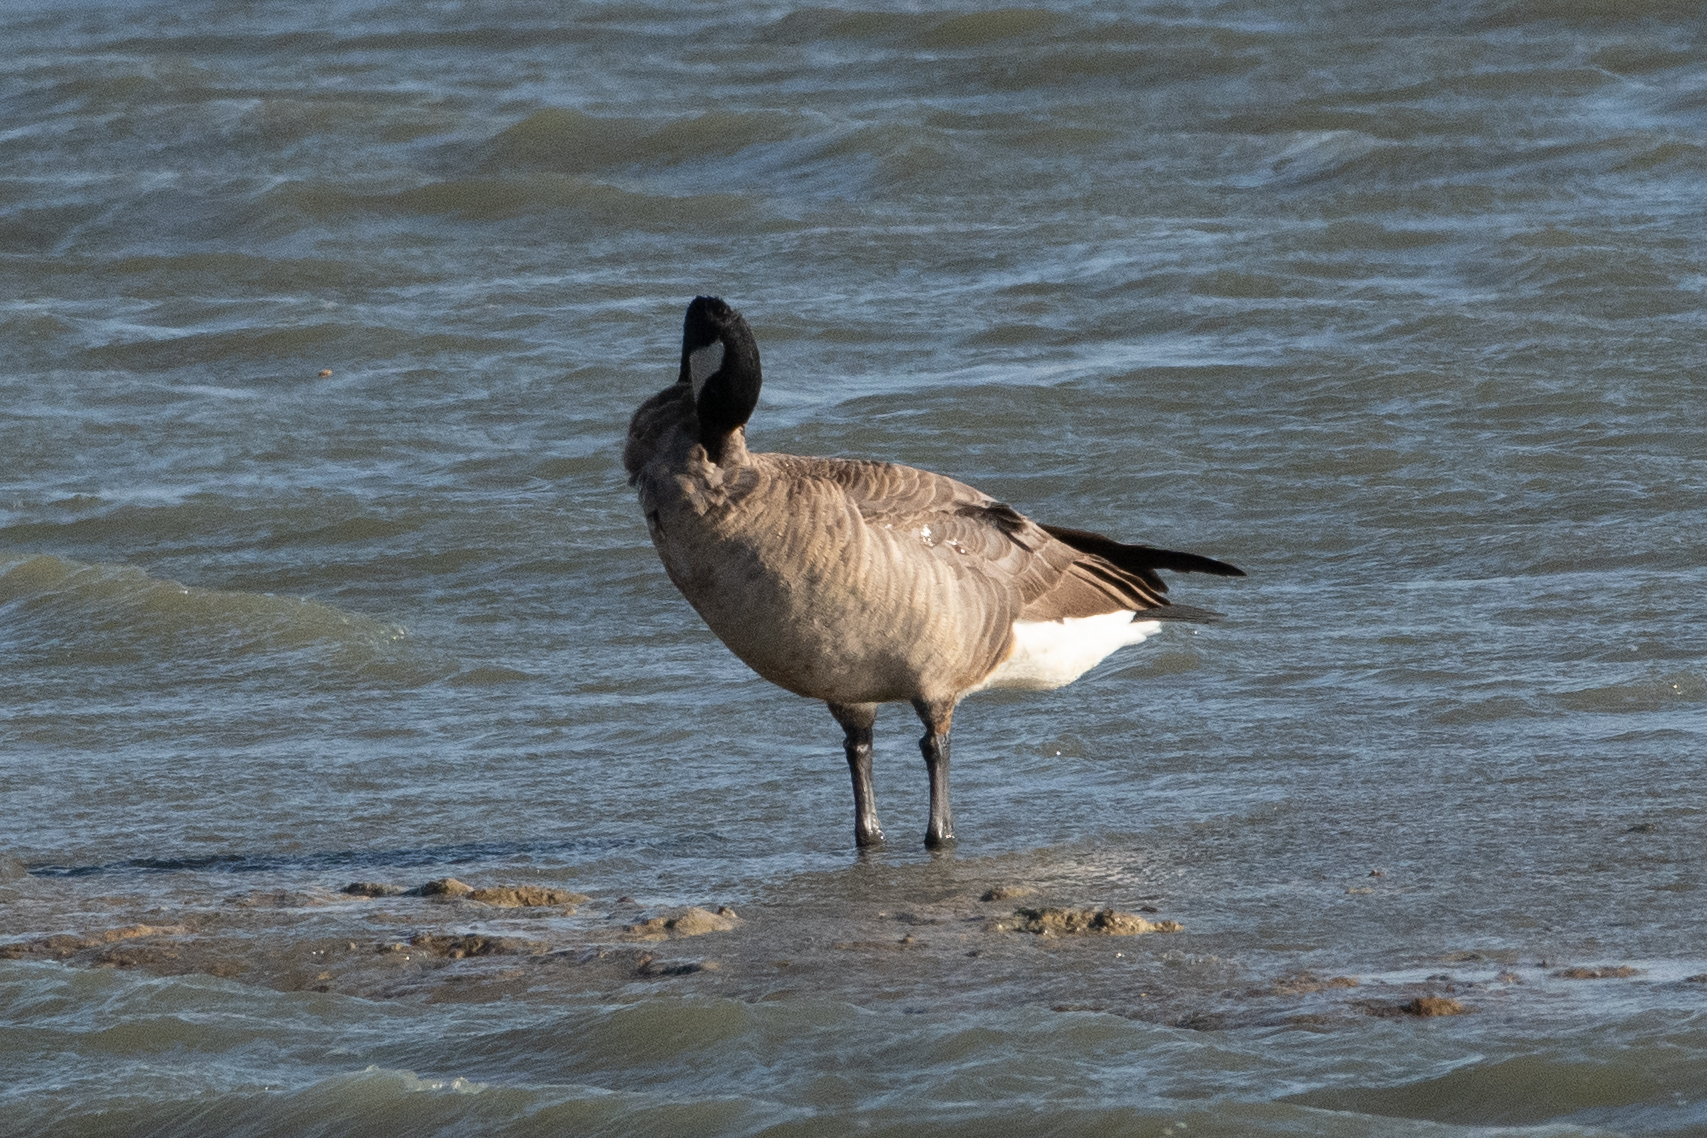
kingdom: Animalia
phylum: Chordata
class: Aves
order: Anseriformes
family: Anatidae
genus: Branta
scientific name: Branta canadensis
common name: Canada goose
